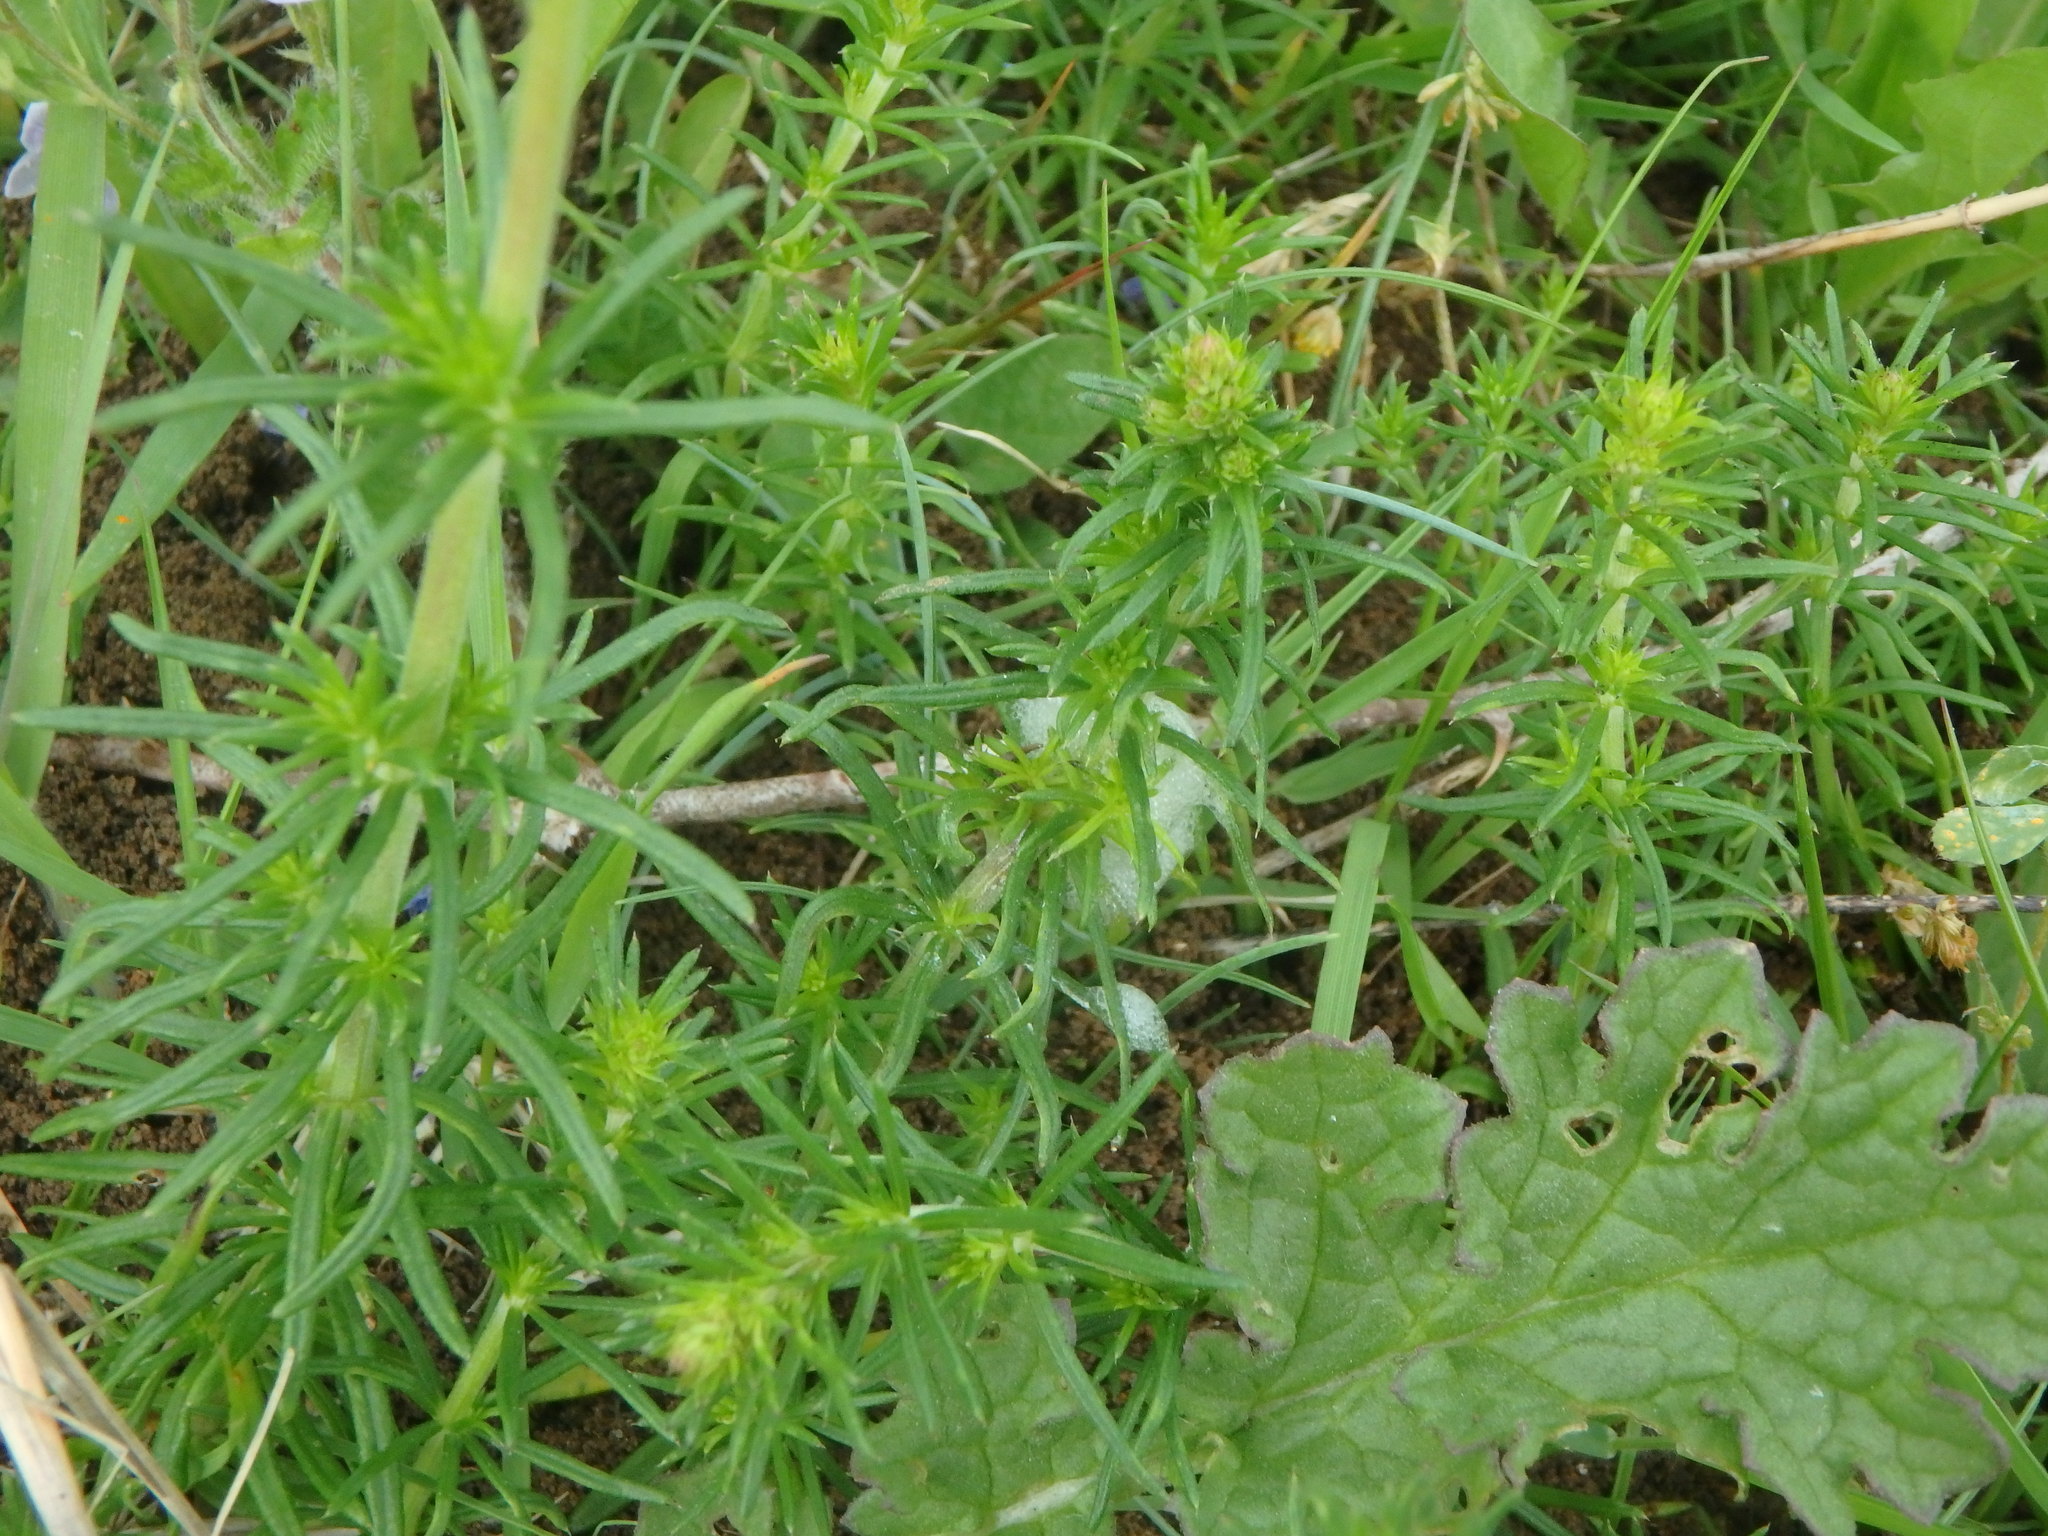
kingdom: Plantae
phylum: Tracheophyta
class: Magnoliopsida
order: Gentianales
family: Rubiaceae
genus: Galium
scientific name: Galium verum
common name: Lady's bedstraw
